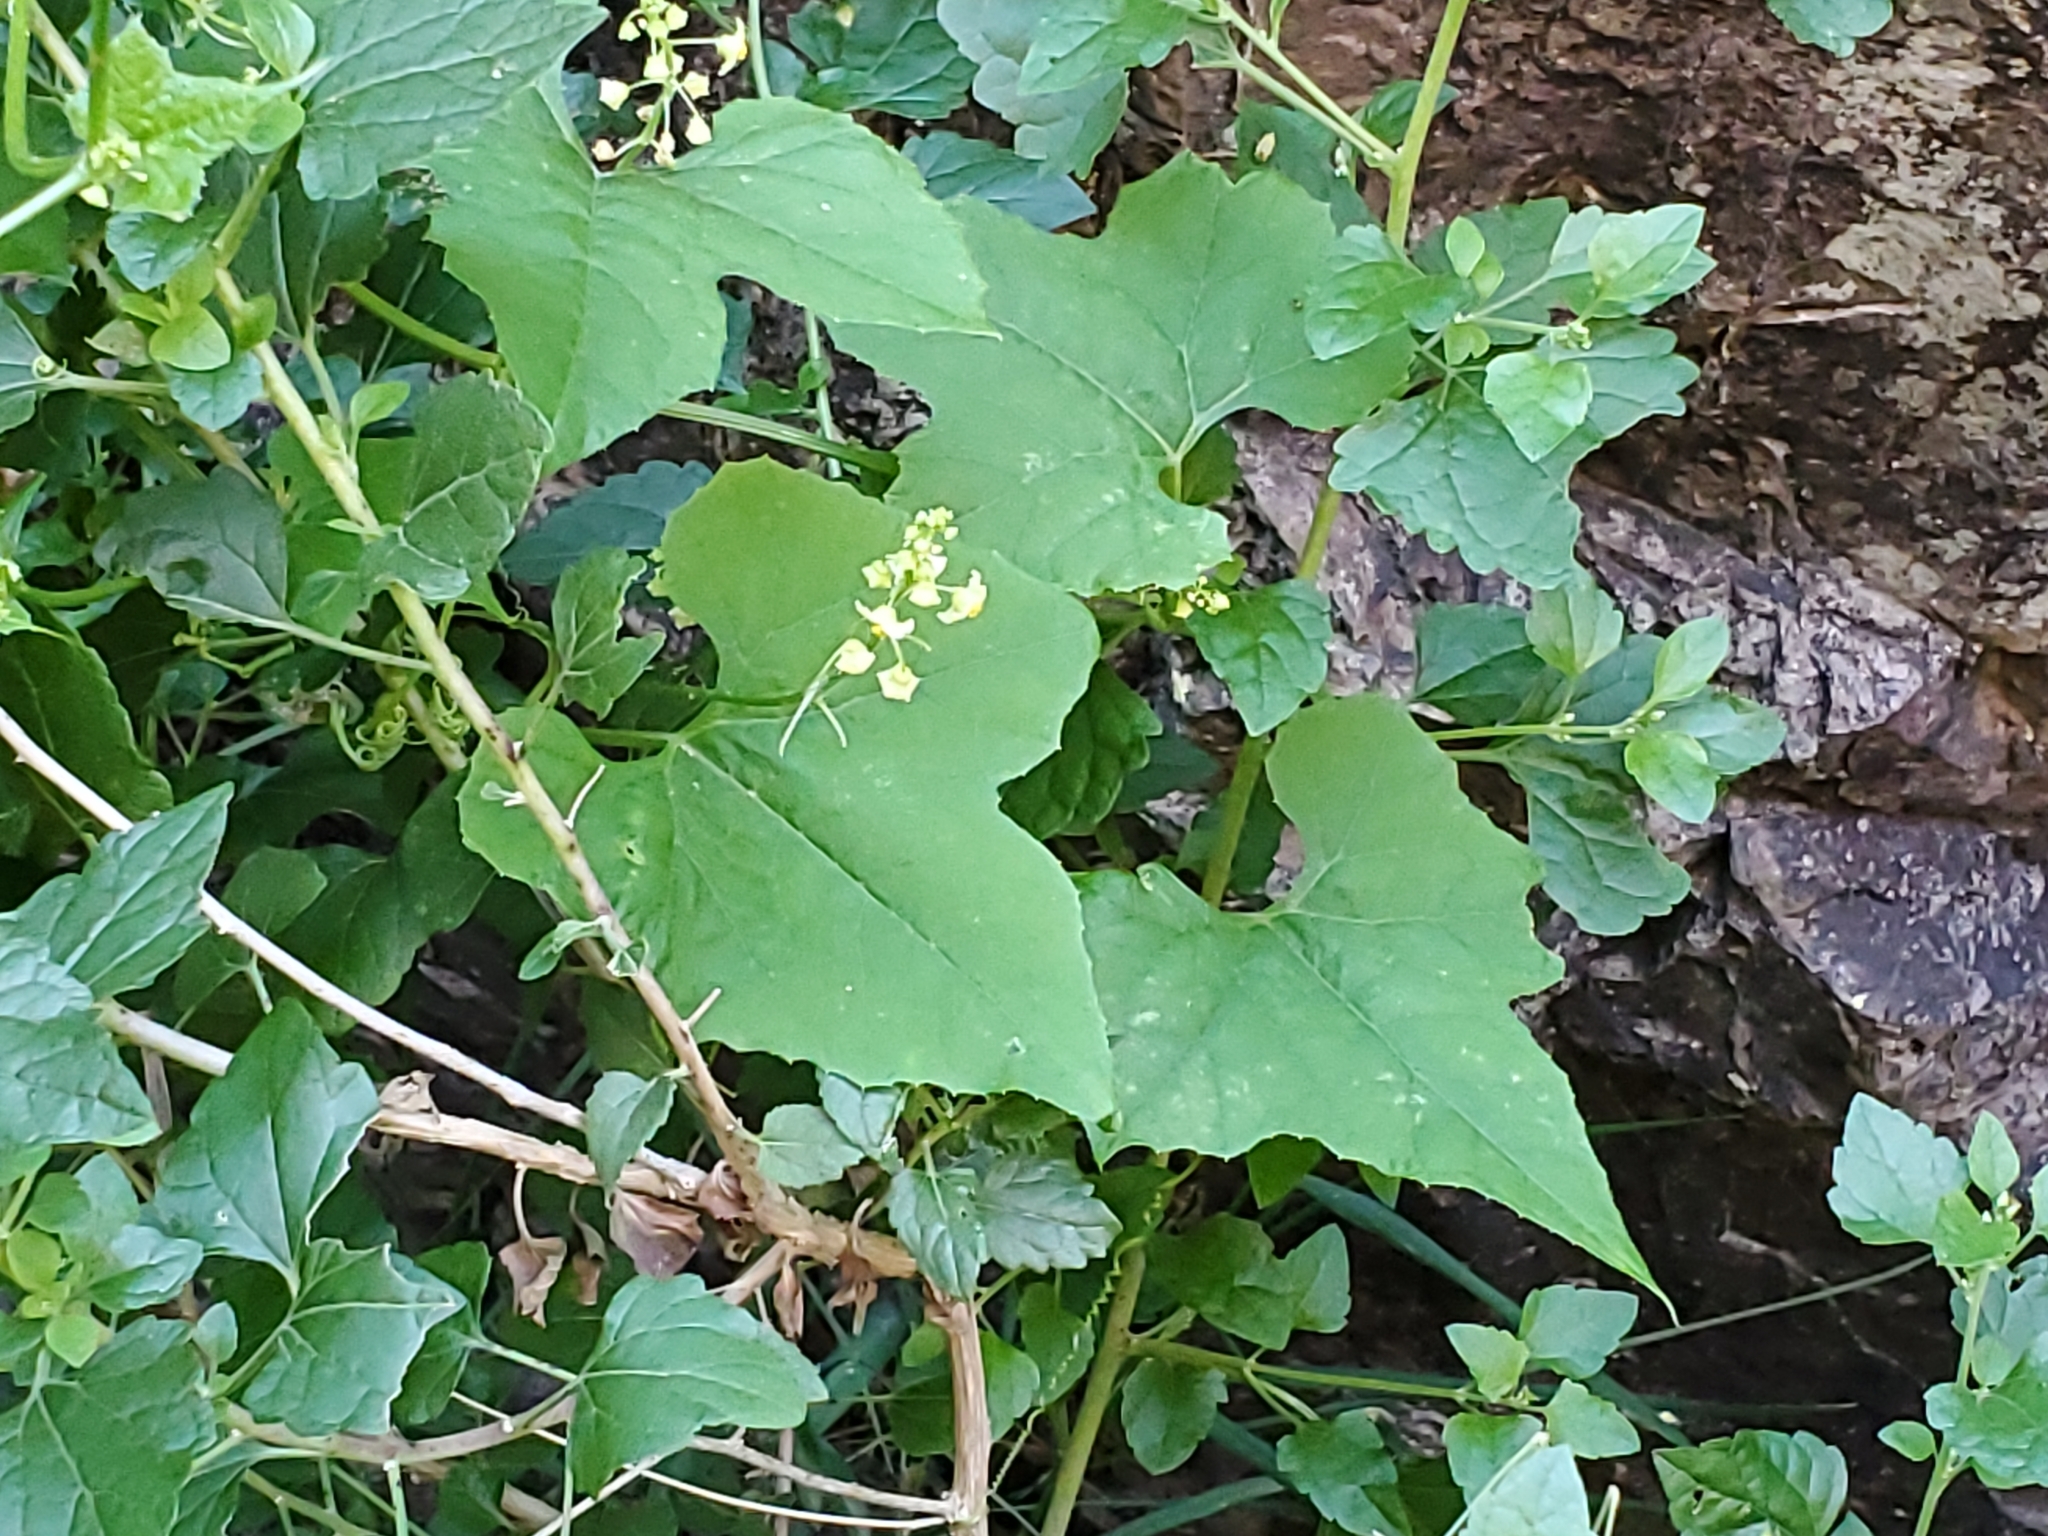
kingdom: Plantae
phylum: Tracheophyta
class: Magnoliopsida
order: Cucurbitales
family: Cucurbitaceae
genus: Sicyos
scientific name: Sicyos glaber
